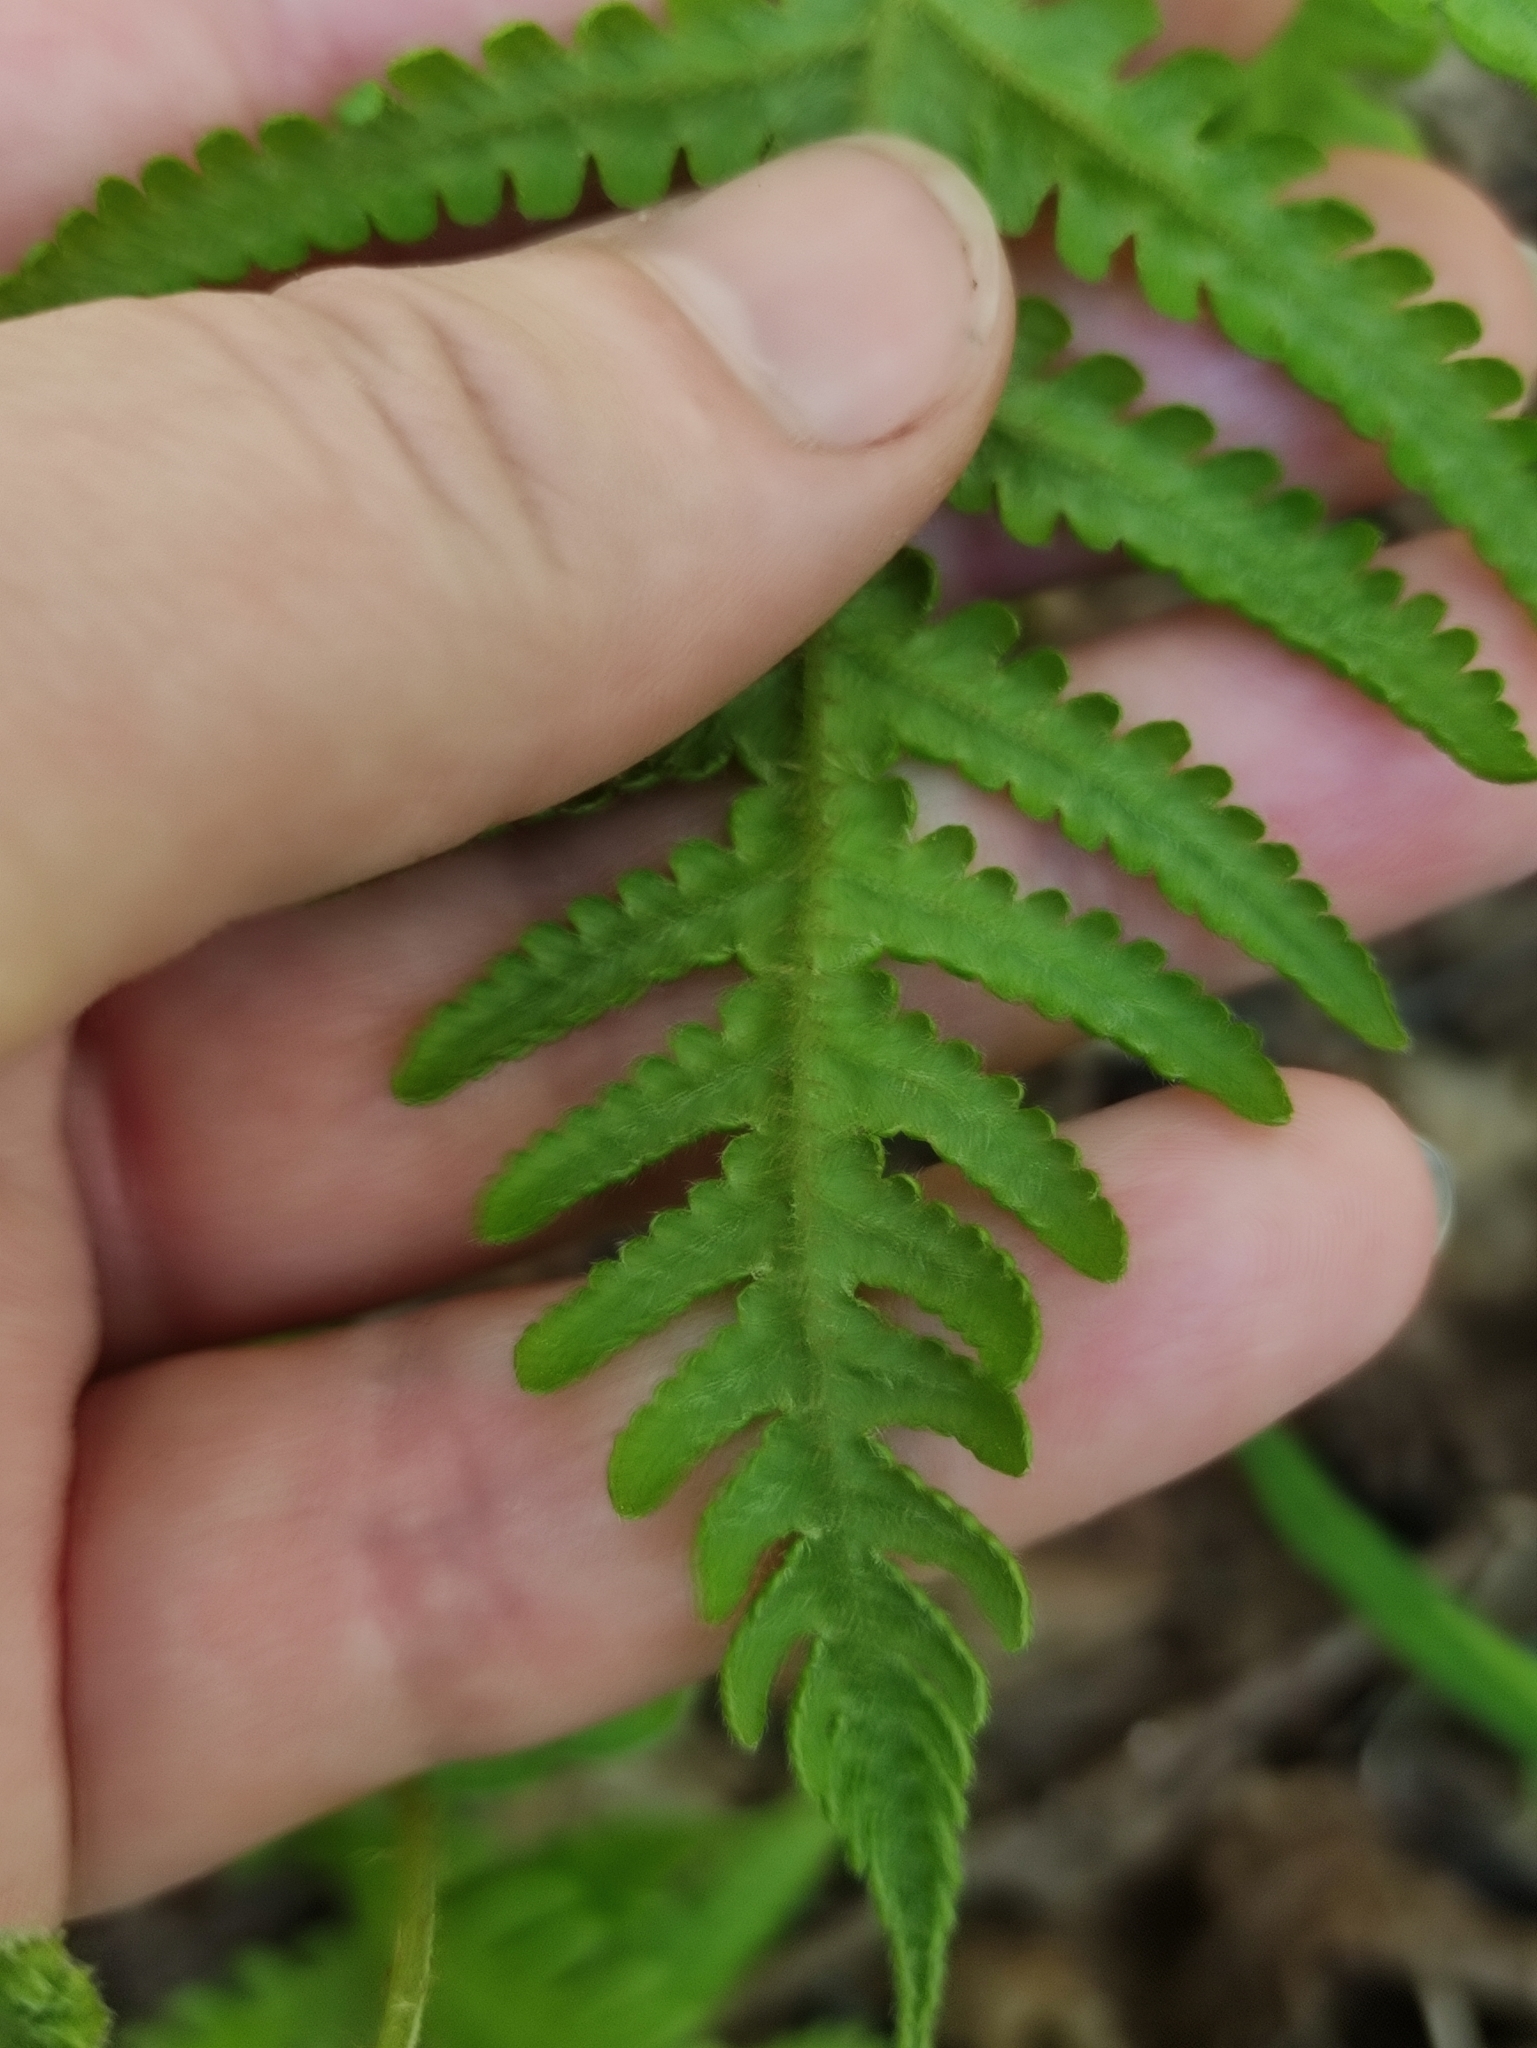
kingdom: Plantae
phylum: Tracheophyta
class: Polypodiopsida
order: Polypodiales
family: Thelypteridaceae
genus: Phegopteris
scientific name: Phegopteris connectilis
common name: Beech fern
